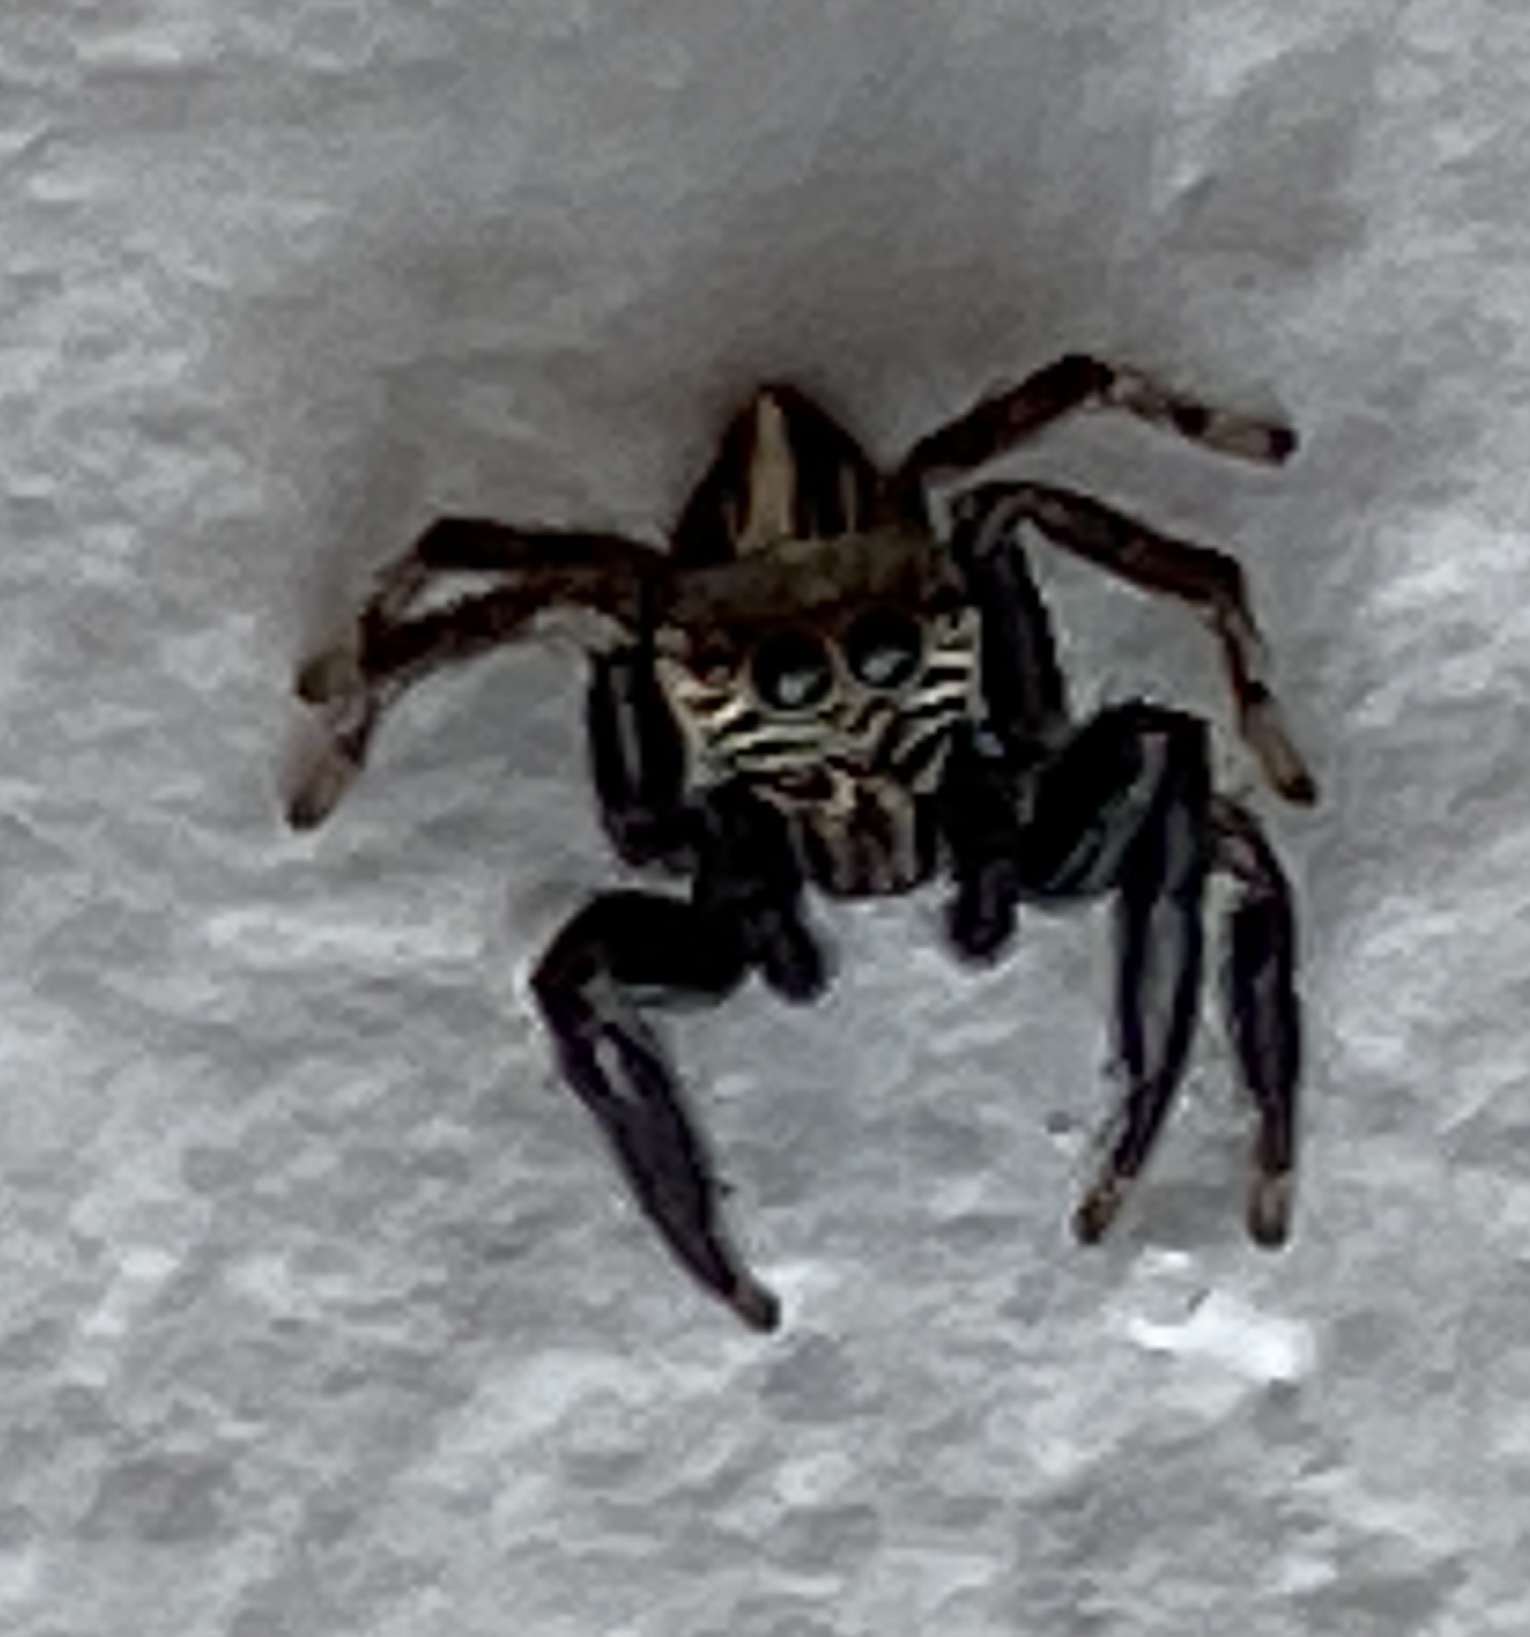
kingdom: Animalia
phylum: Arthropoda
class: Arachnida
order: Araneae
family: Salticidae
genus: Evarcha
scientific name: Evarcha denticulata
